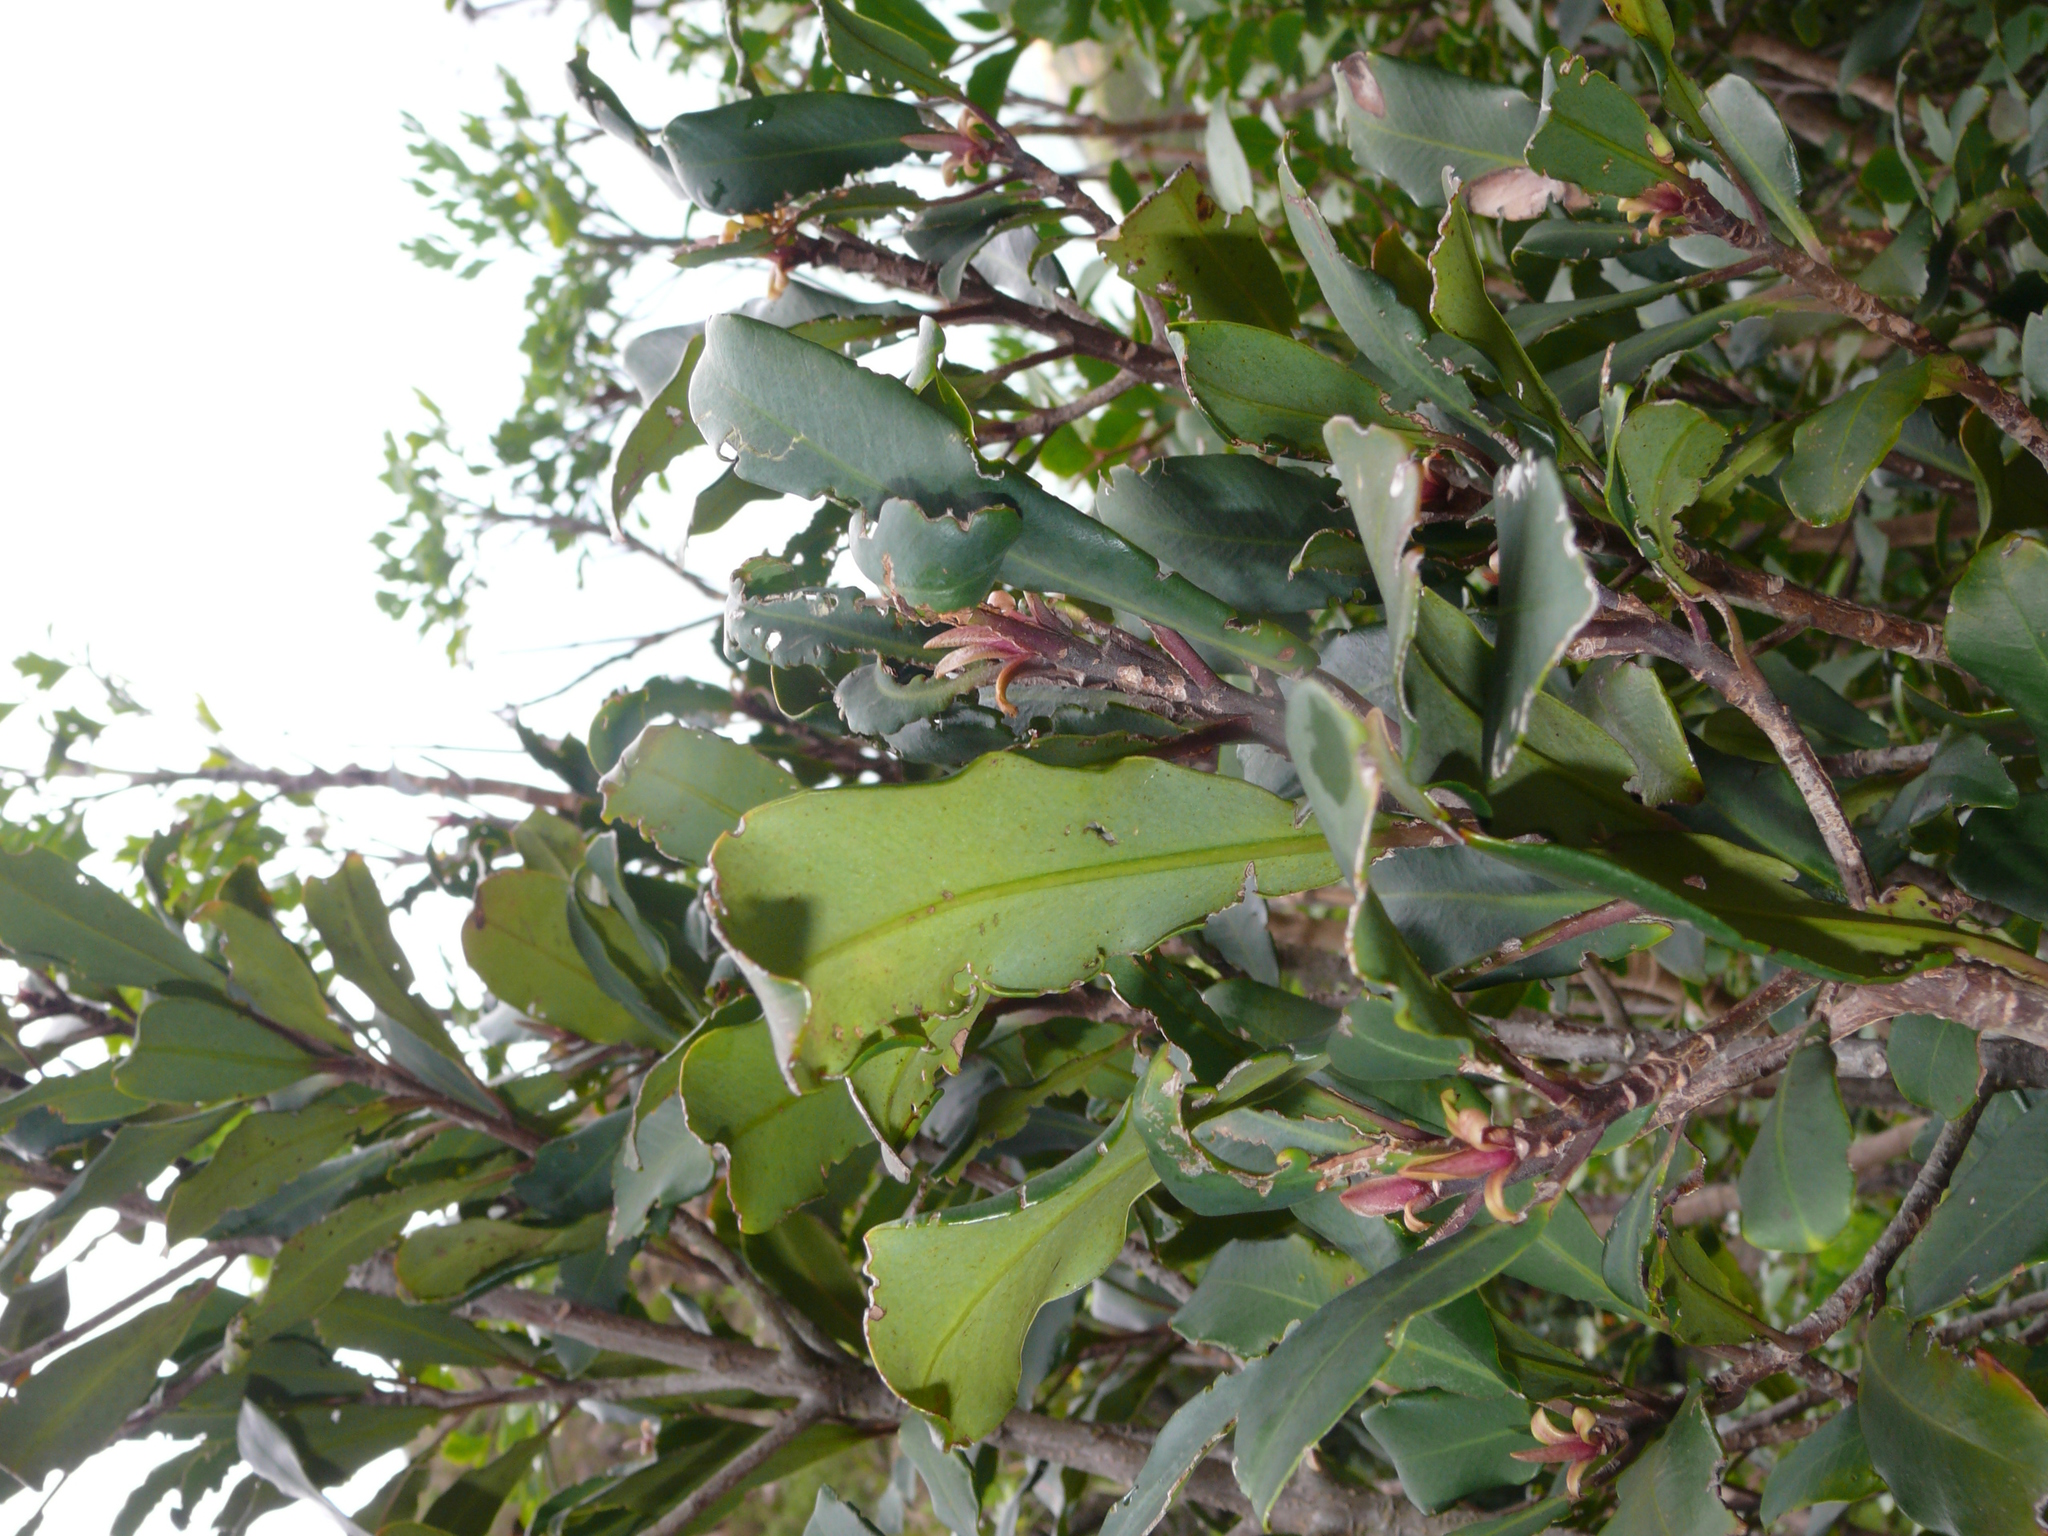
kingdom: Plantae
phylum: Tracheophyta
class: Magnoliopsida
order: Ericales
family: Primulaceae
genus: Myrsine
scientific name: Myrsine melanophloeos
